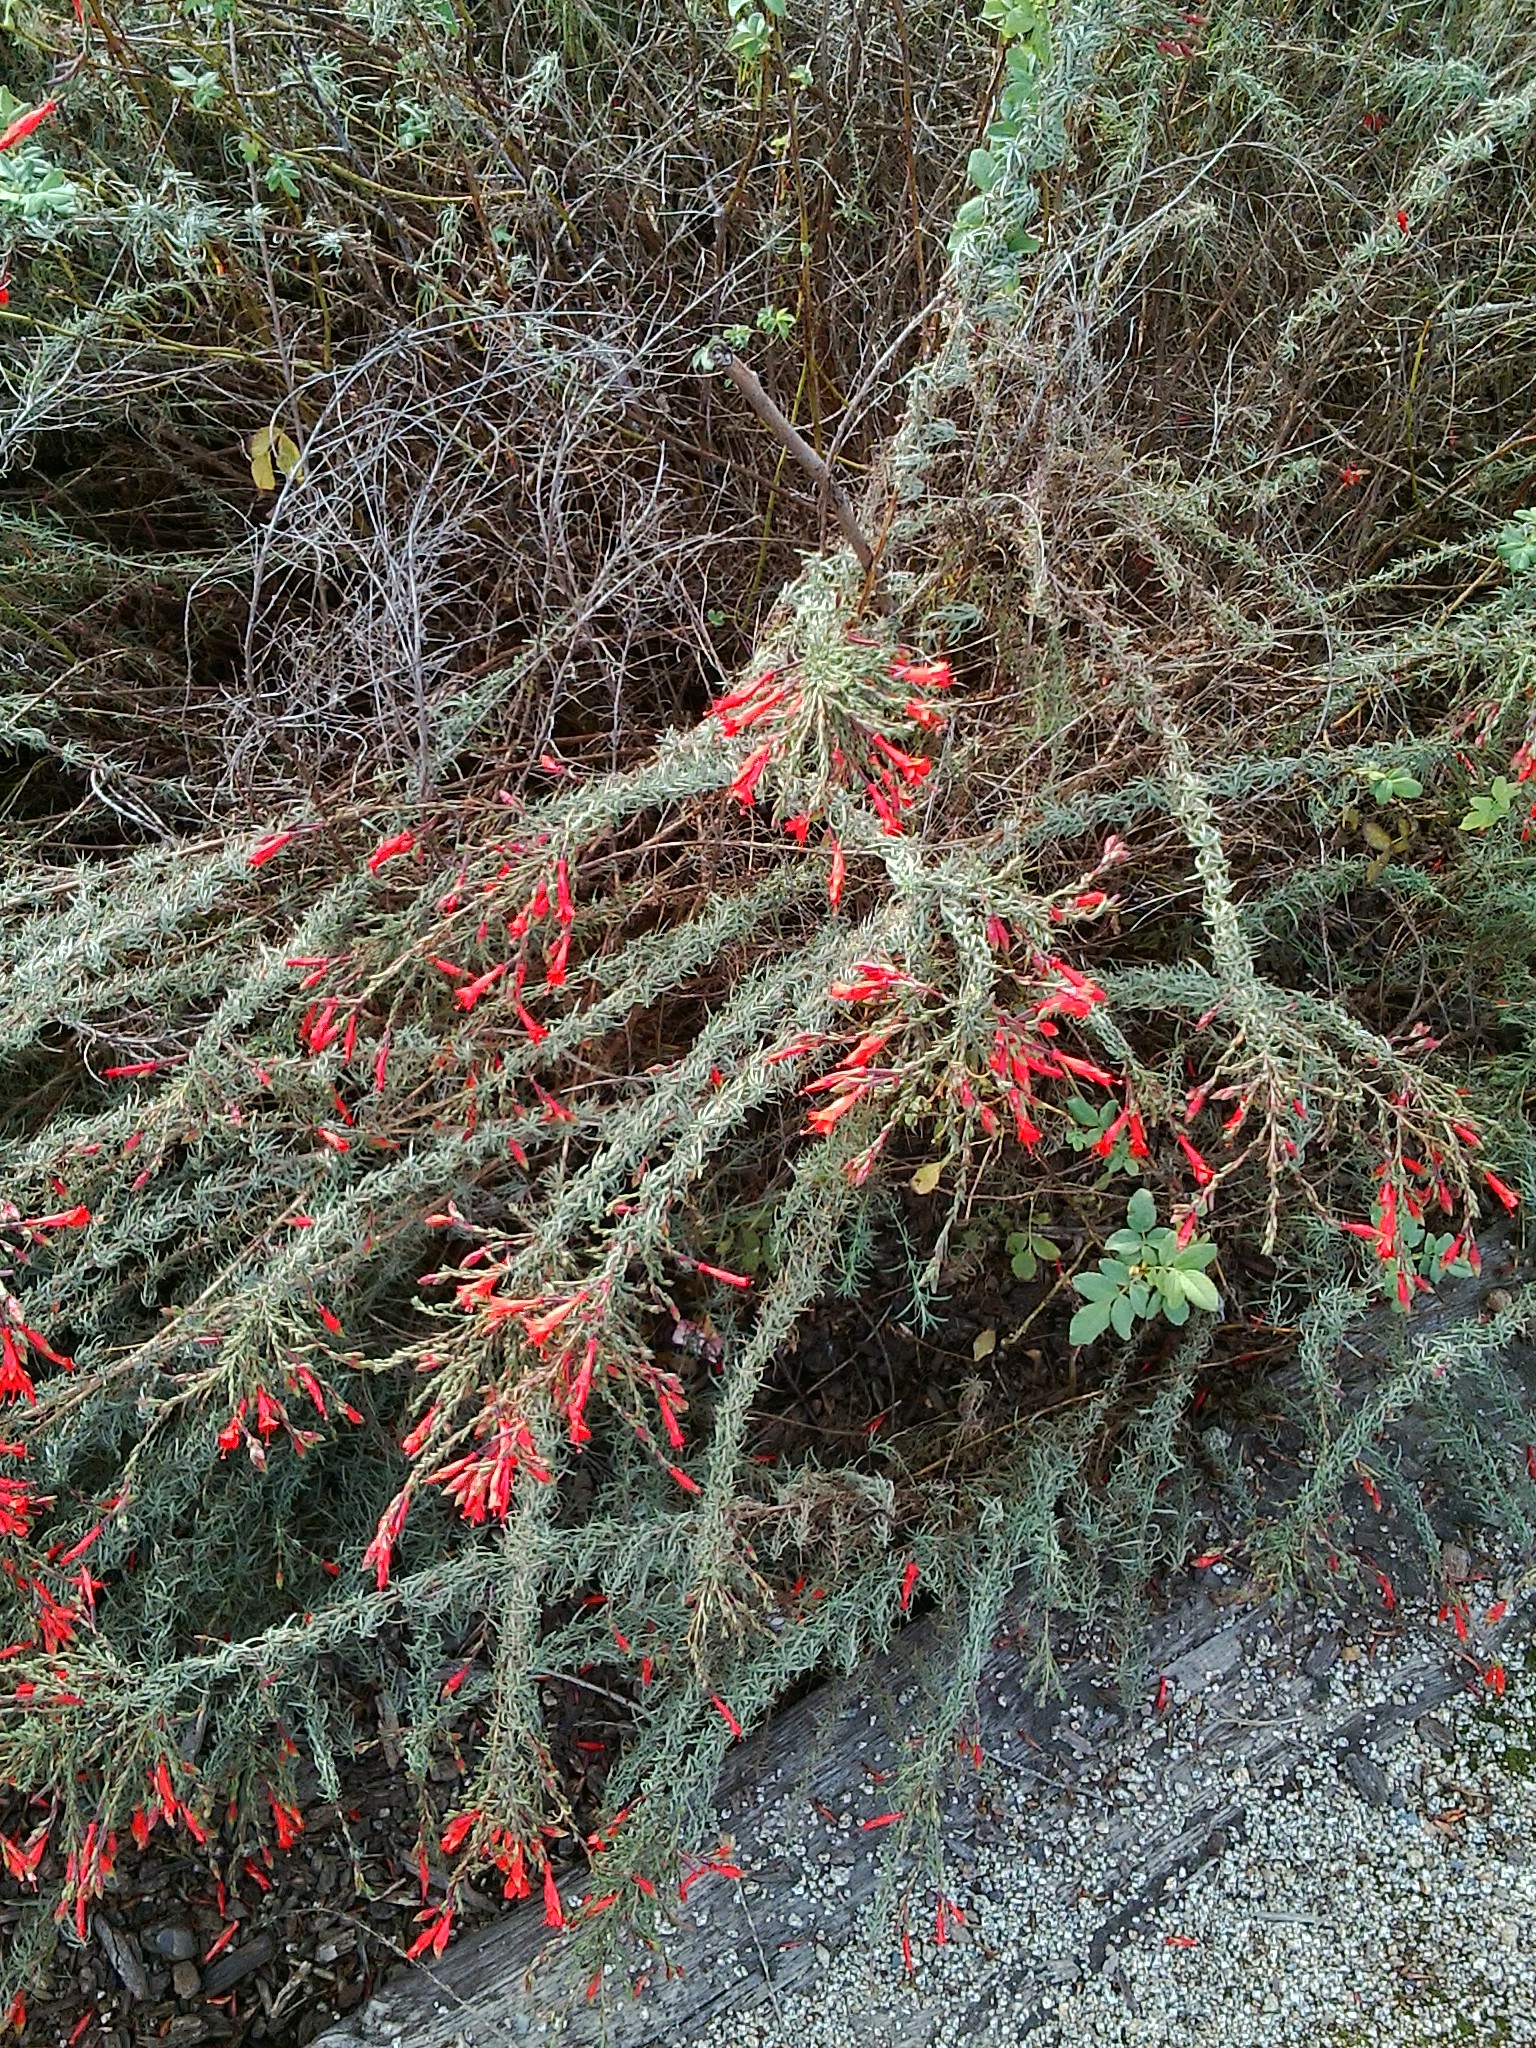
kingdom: Plantae
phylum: Tracheophyta
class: Magnoliopsida
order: Myrtales
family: Onagraceae
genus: Epilobium
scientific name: Epilobium canum
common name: California-fuchsia
